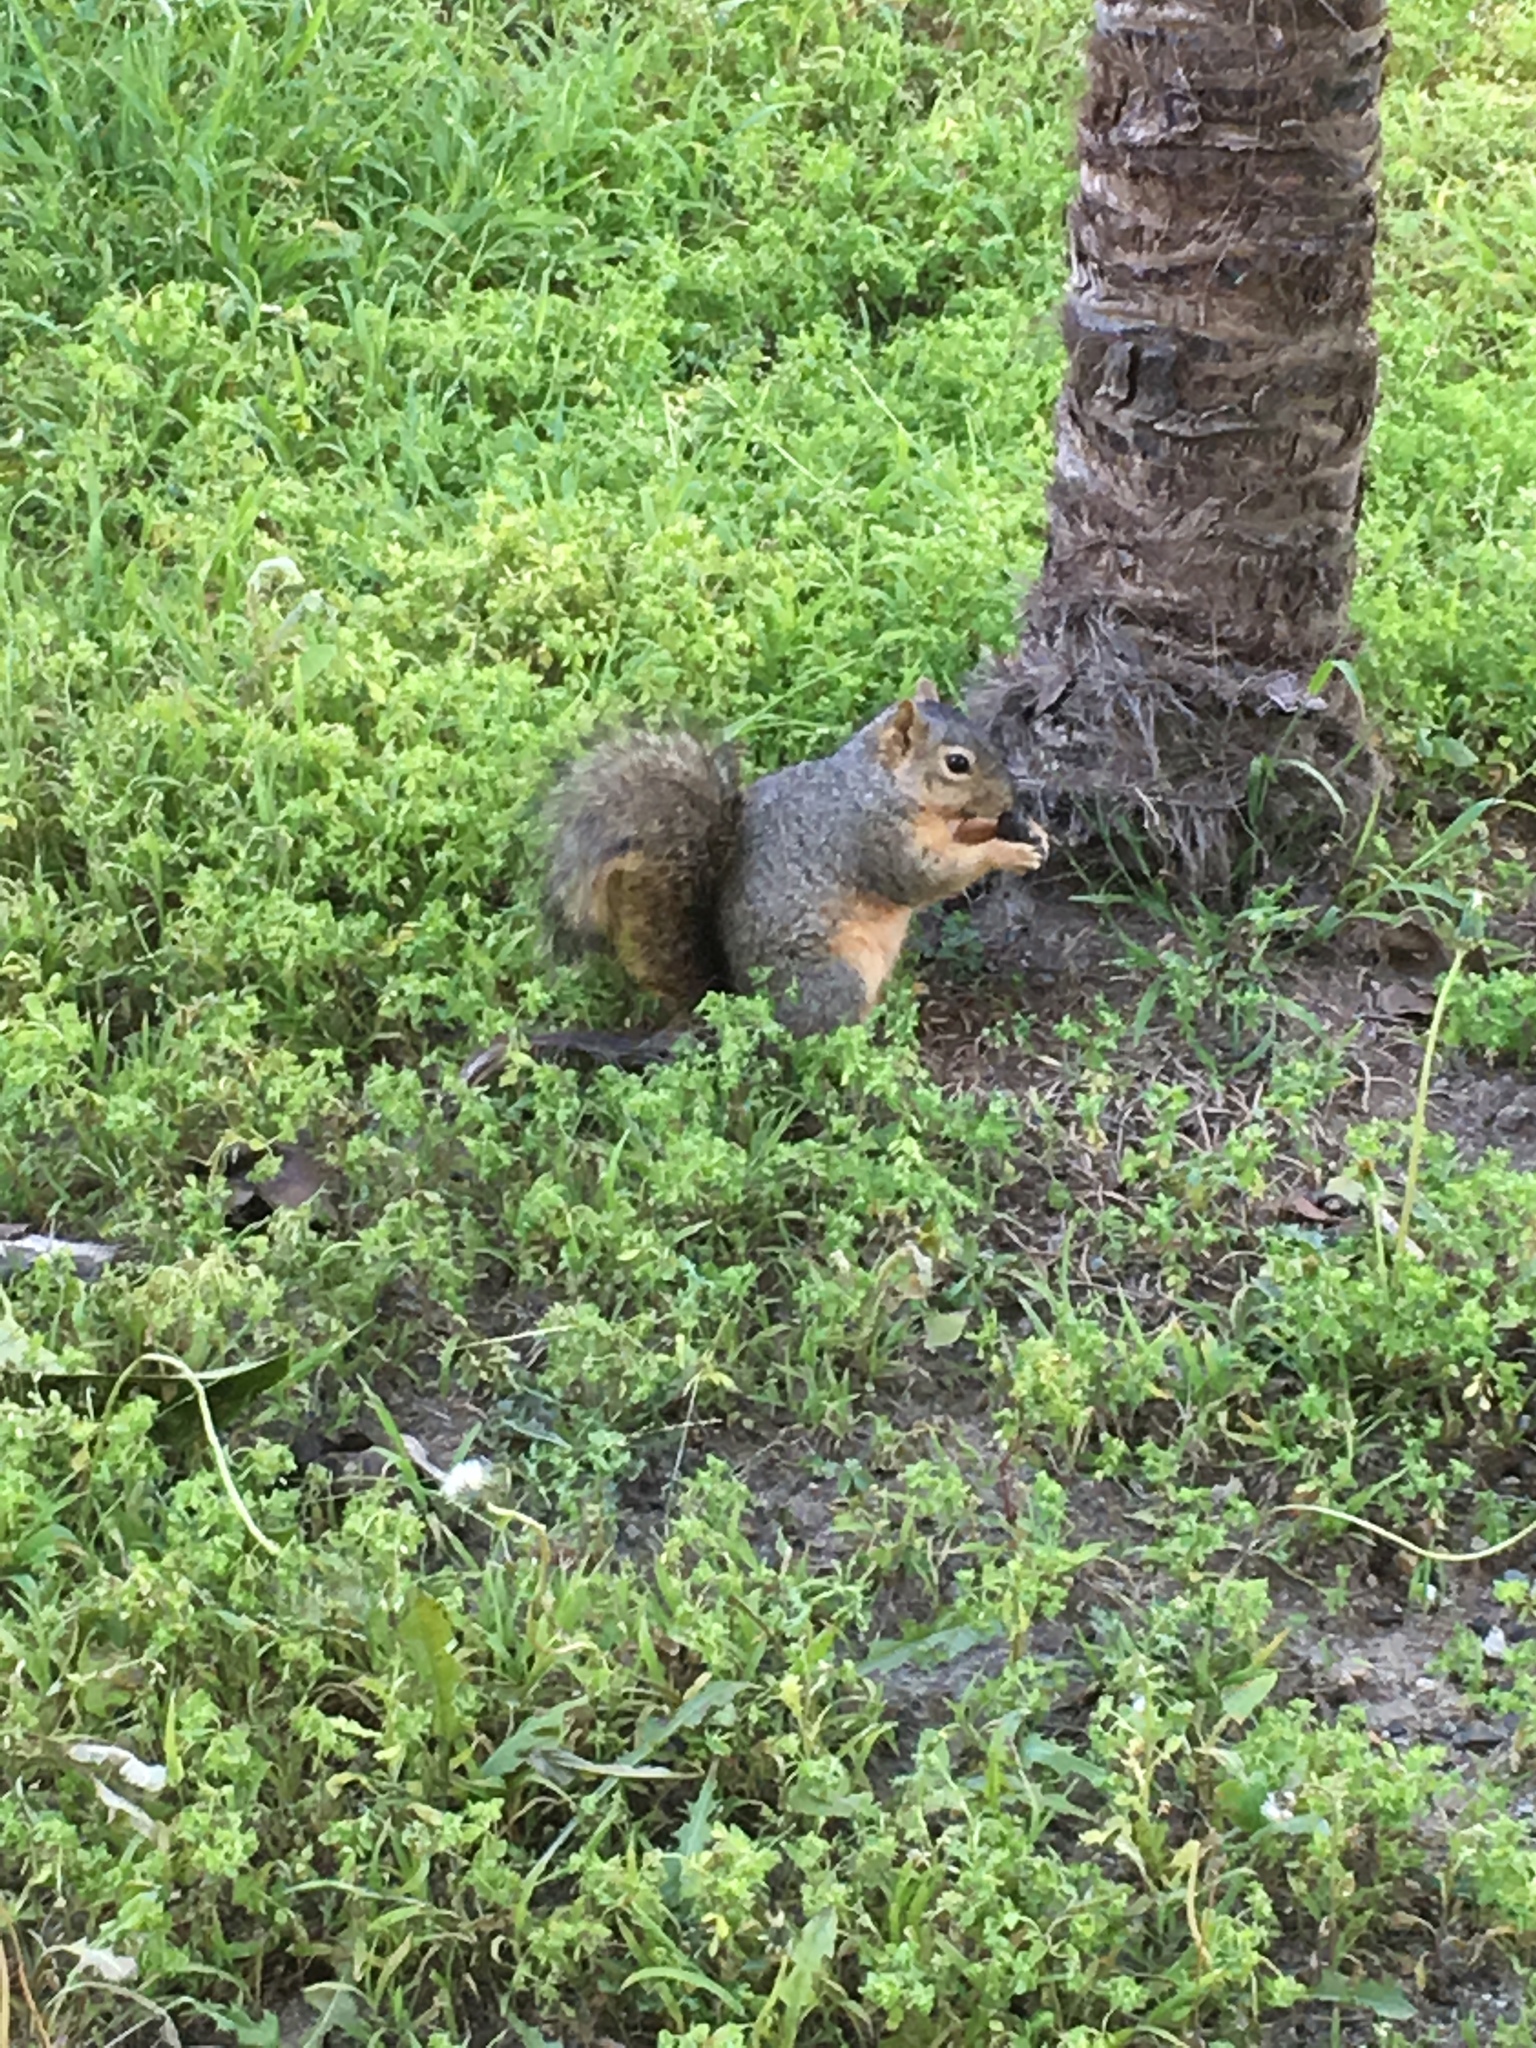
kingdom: Animalia
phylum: Chordata
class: Mammalia
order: Rodentia
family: Sciuridae
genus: Sciurus
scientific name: Sciurus niger
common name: Fox squirrel
